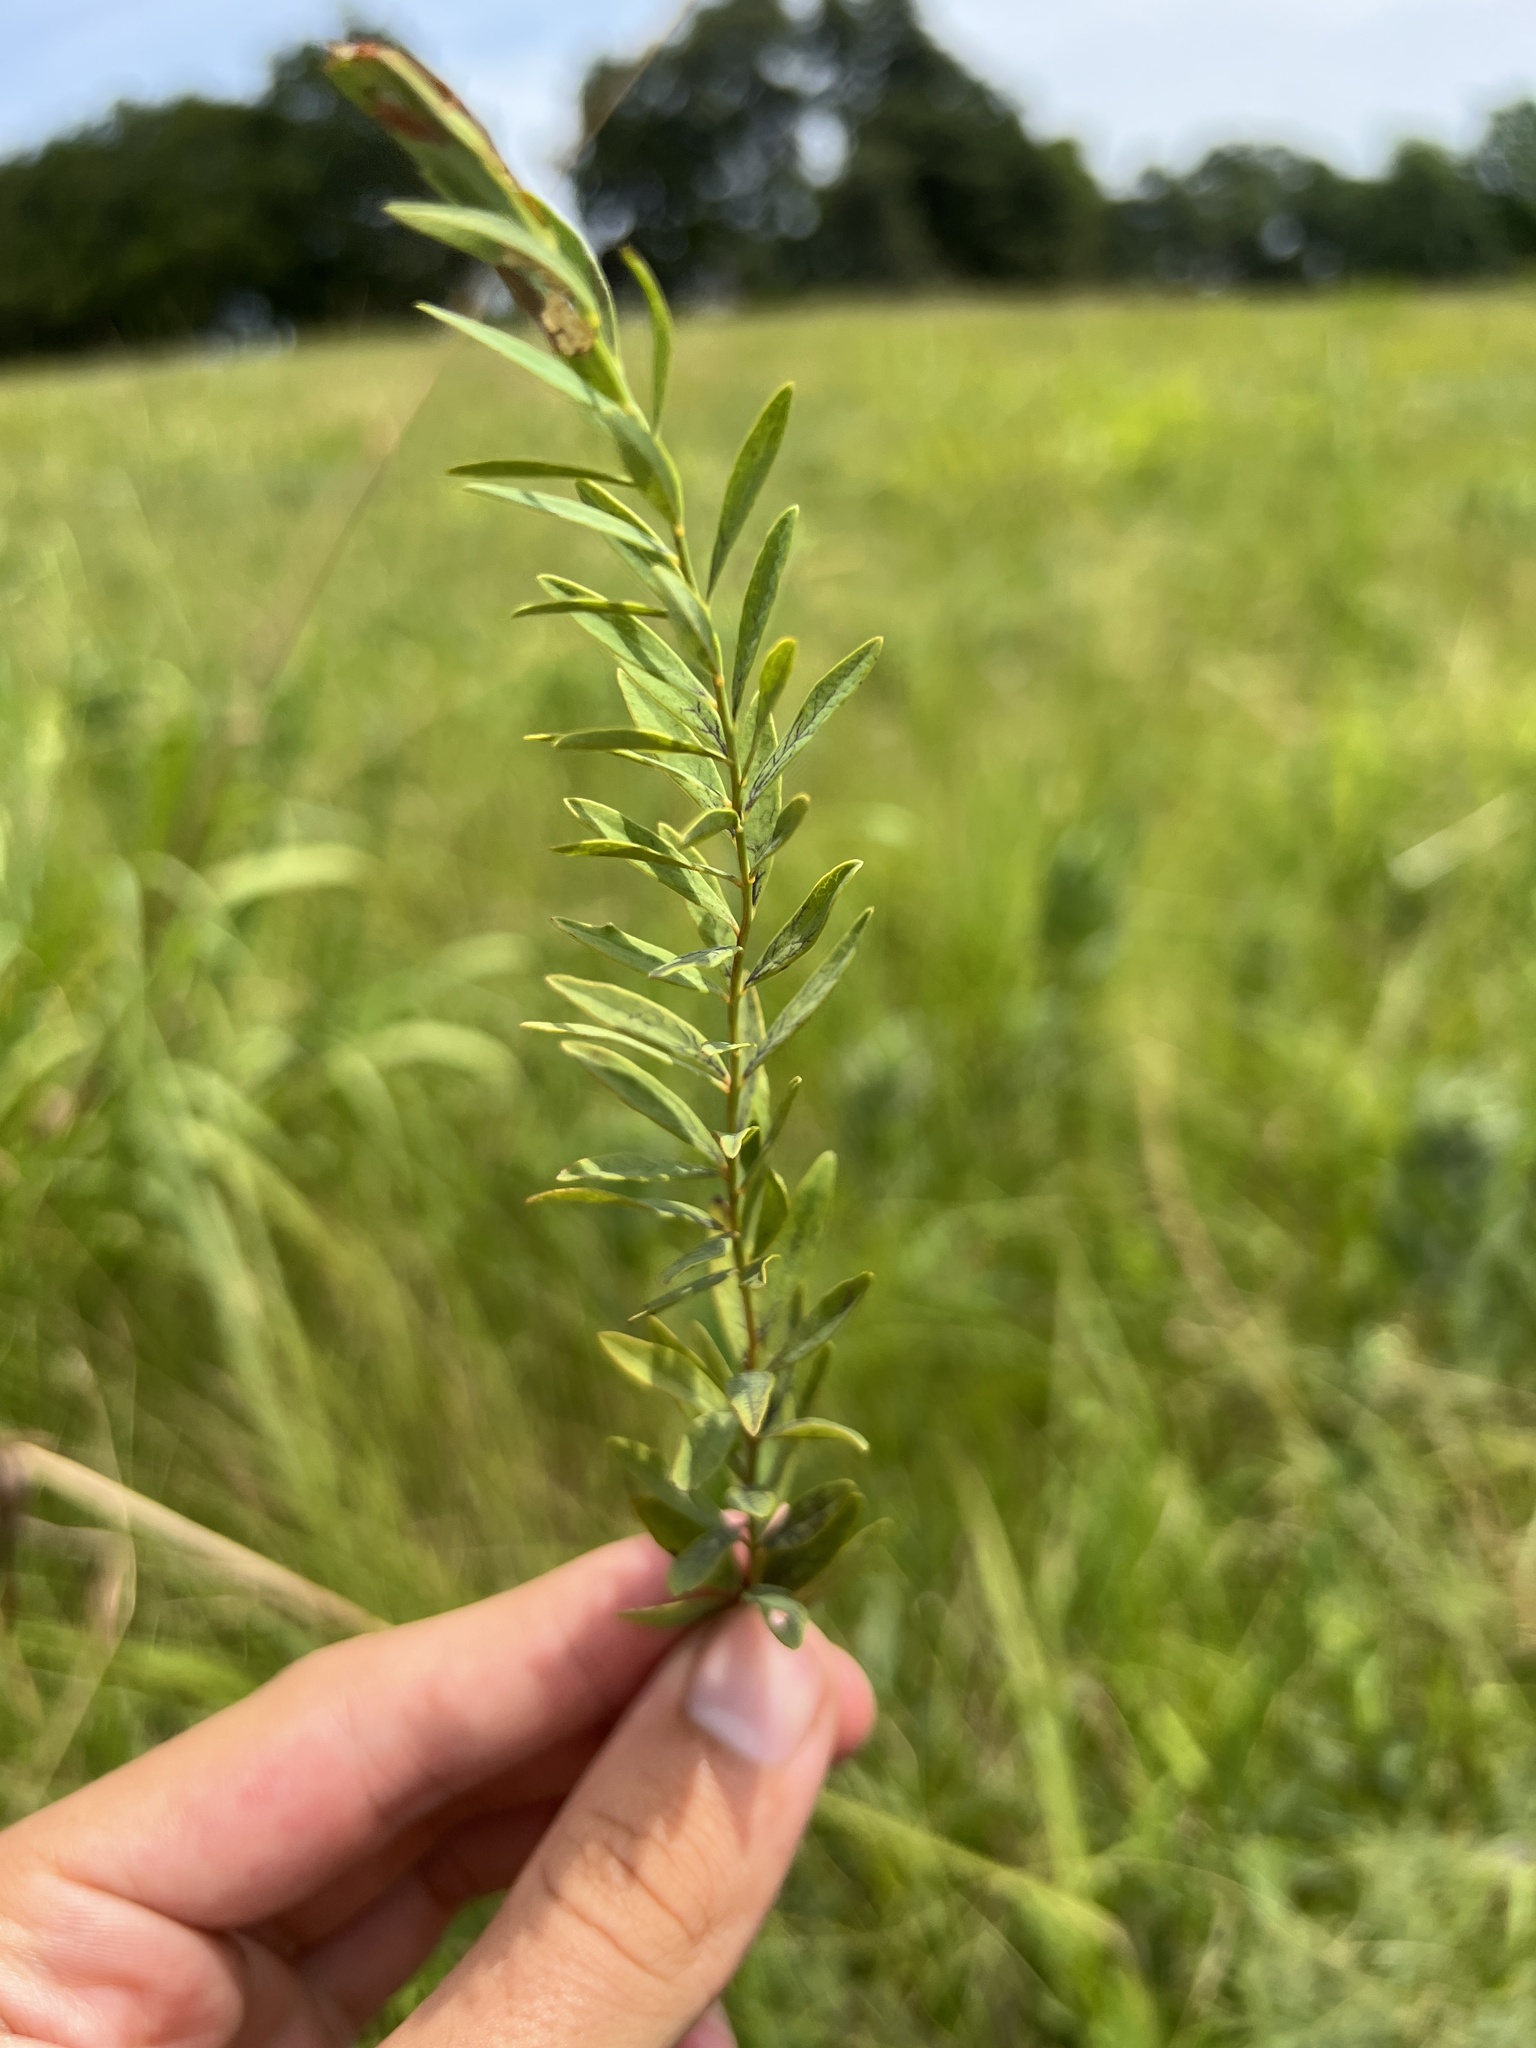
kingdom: Plantae
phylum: Tracheophyta
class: Magnoliopsida
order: Santalales
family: Comandraceae
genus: Comandra
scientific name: Comandra umbellata
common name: Bastard toadflax
